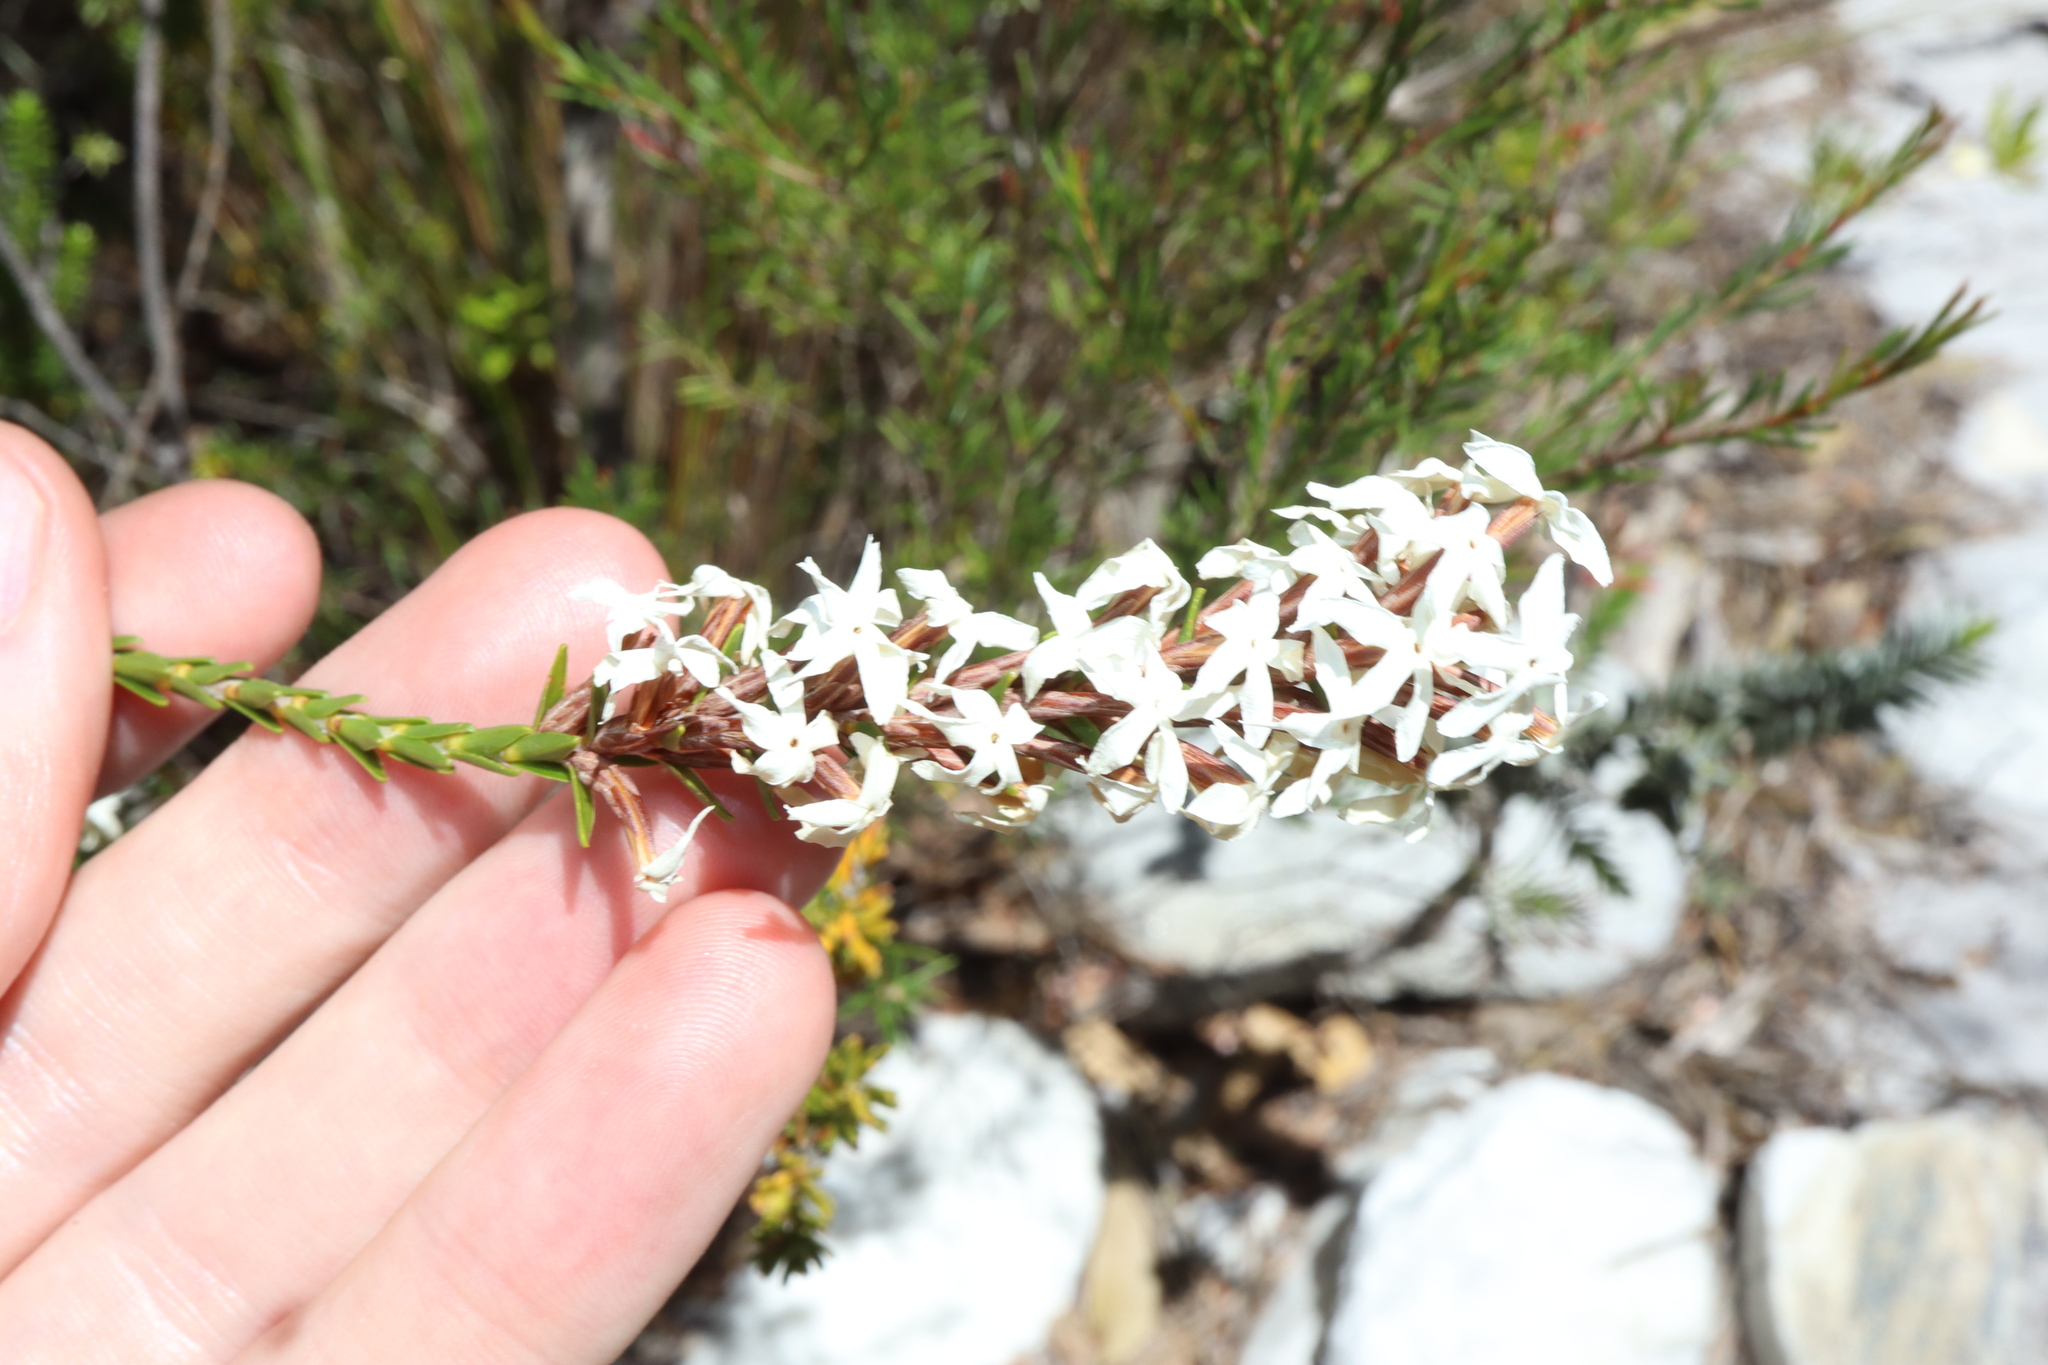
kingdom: Plantae
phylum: Tracheophyta
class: Magnoliopsida
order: Ericales
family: Ericaceae
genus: Lysinema
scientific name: Lysinema pentapetalum
